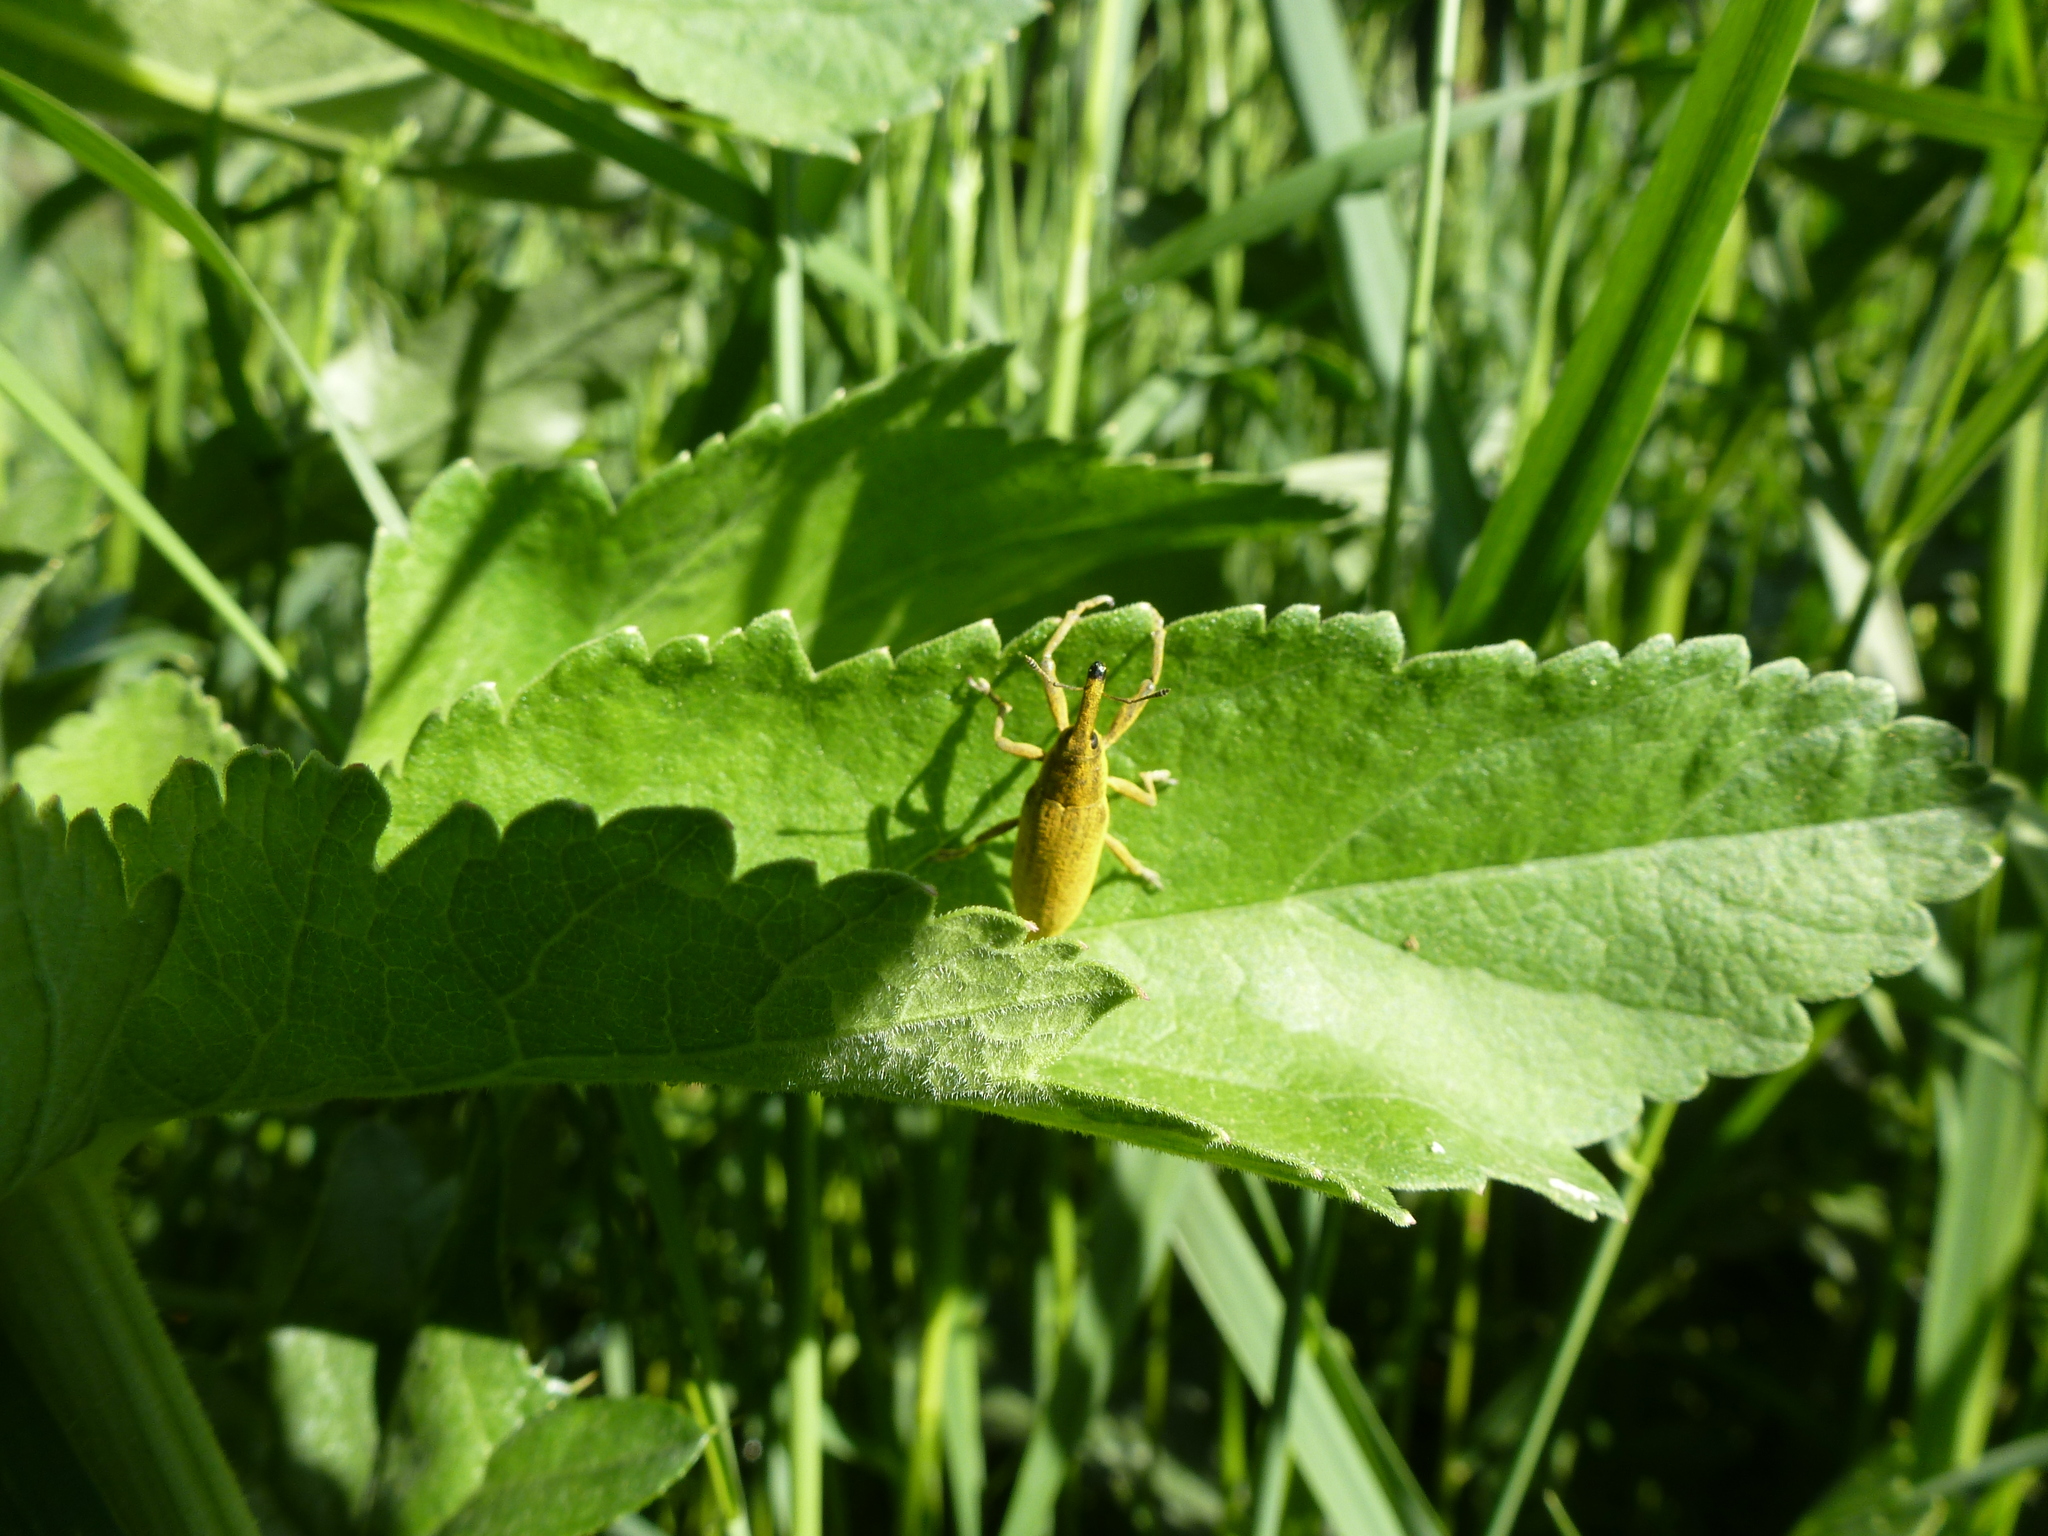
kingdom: Animalia
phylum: Arthropoda
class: Insecta
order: Coleoptera
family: Curculionidae
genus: Lixus
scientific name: Lixus iridis
